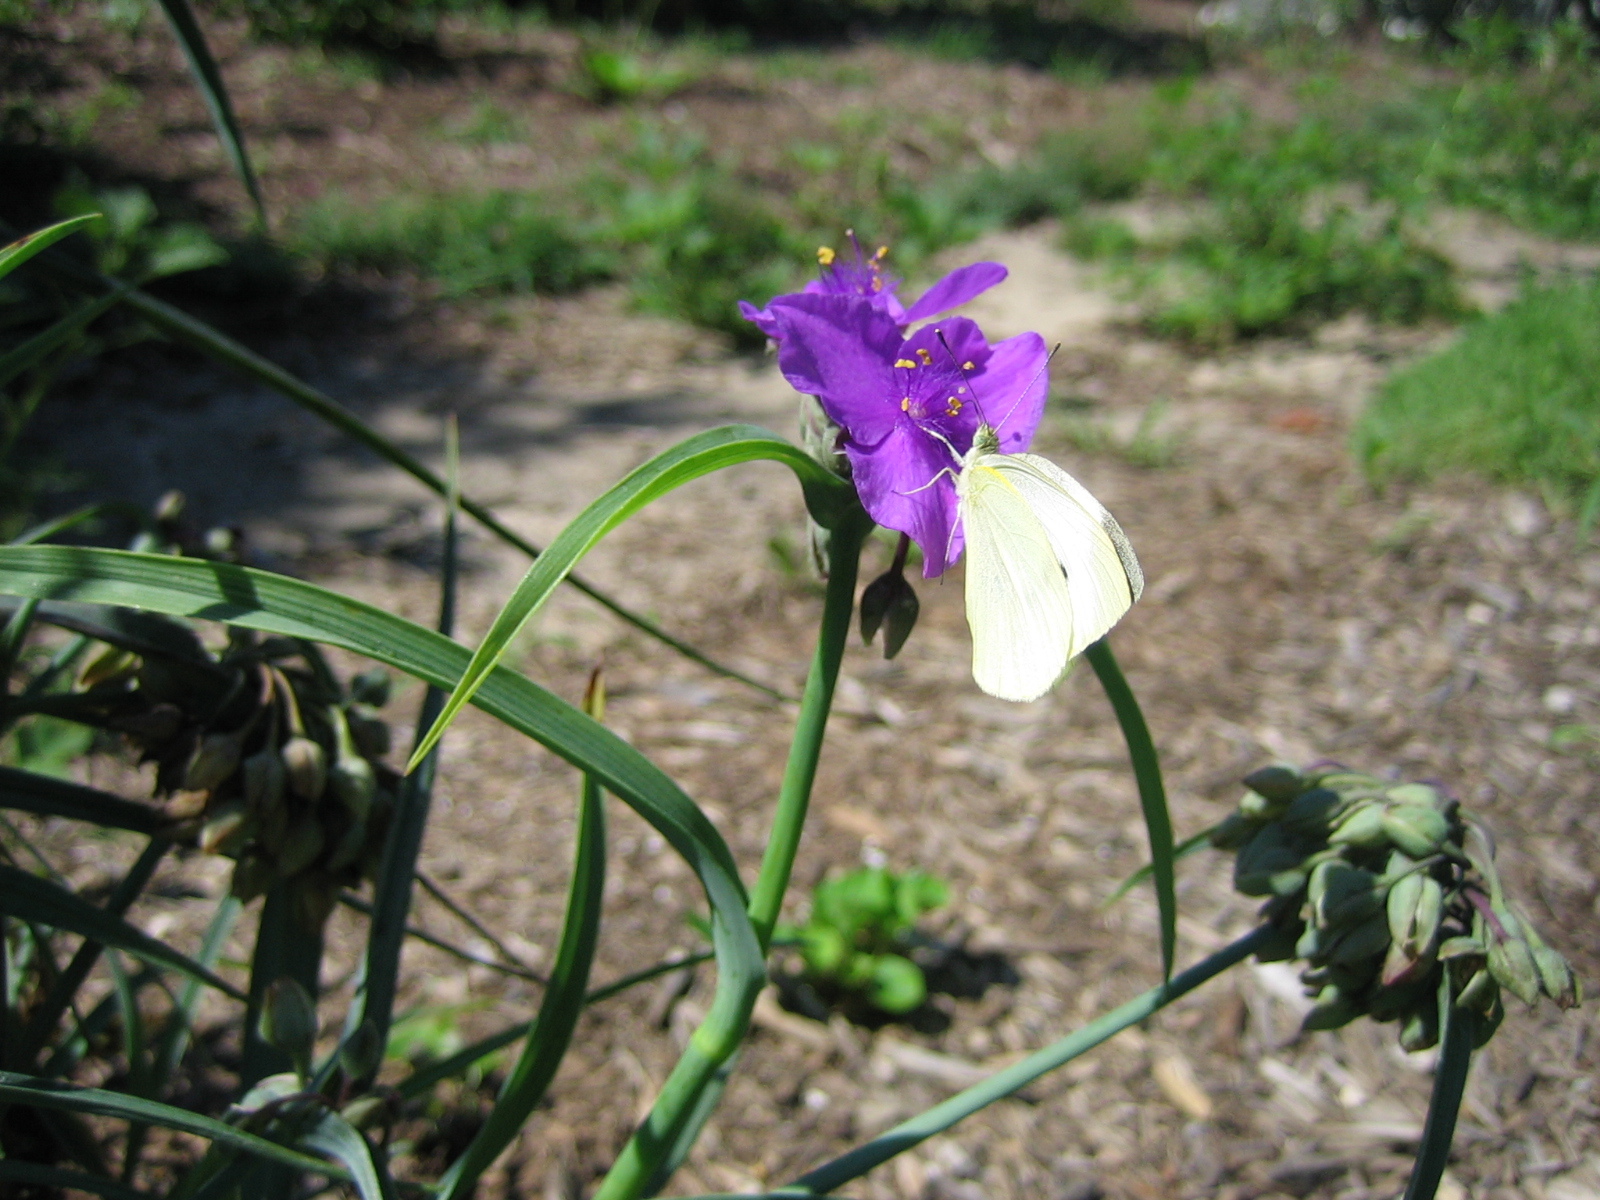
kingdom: Animalia
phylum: Arthropoda
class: Insecta
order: Lepidoptera
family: Pieridae
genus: Pieris
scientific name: Pieris rapae
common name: Small white
